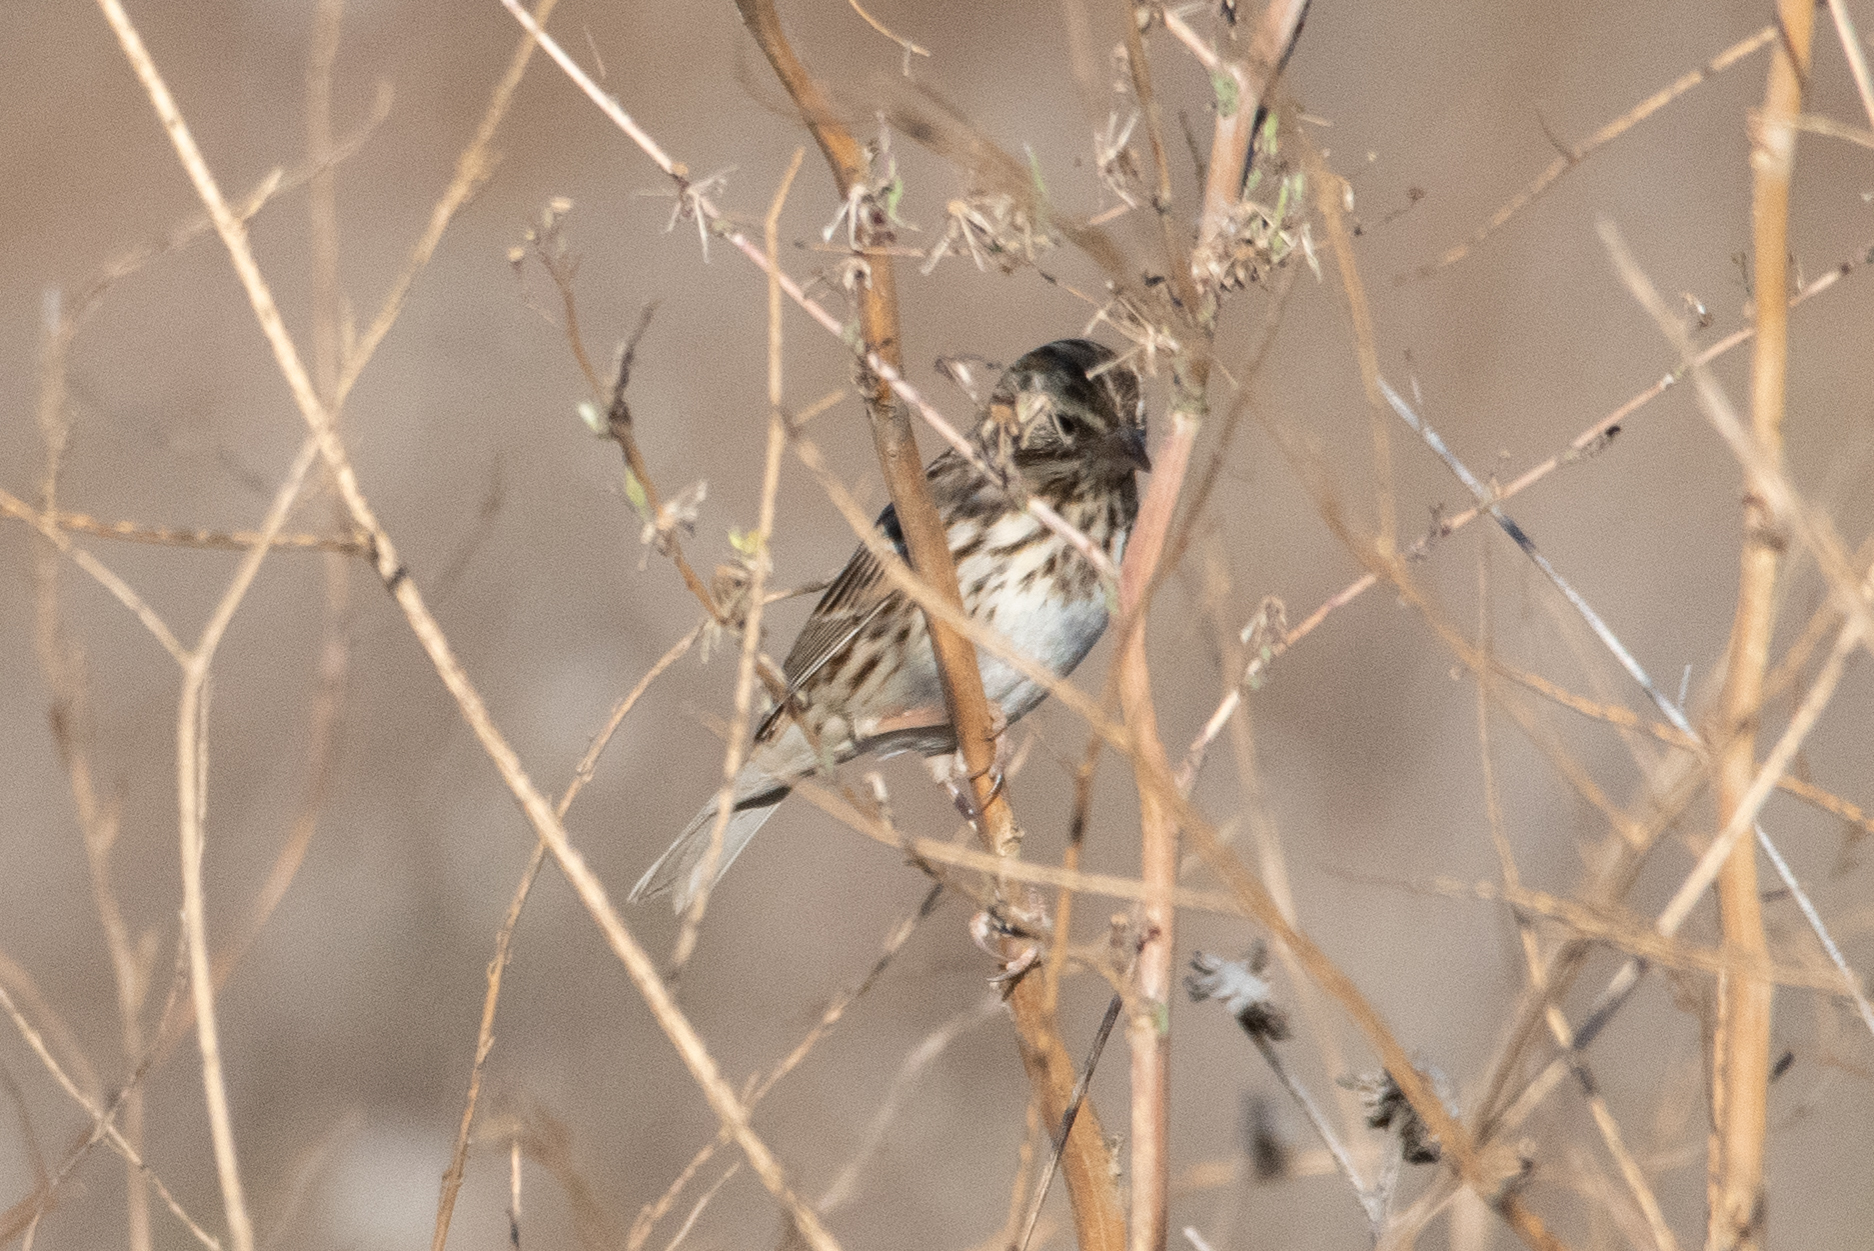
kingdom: Animalia
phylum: Chordata
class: Aves
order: Passeriformes
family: Passerellidae
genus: Passerculus
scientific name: Passerculus sandwichensis
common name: Savannah sparrow
